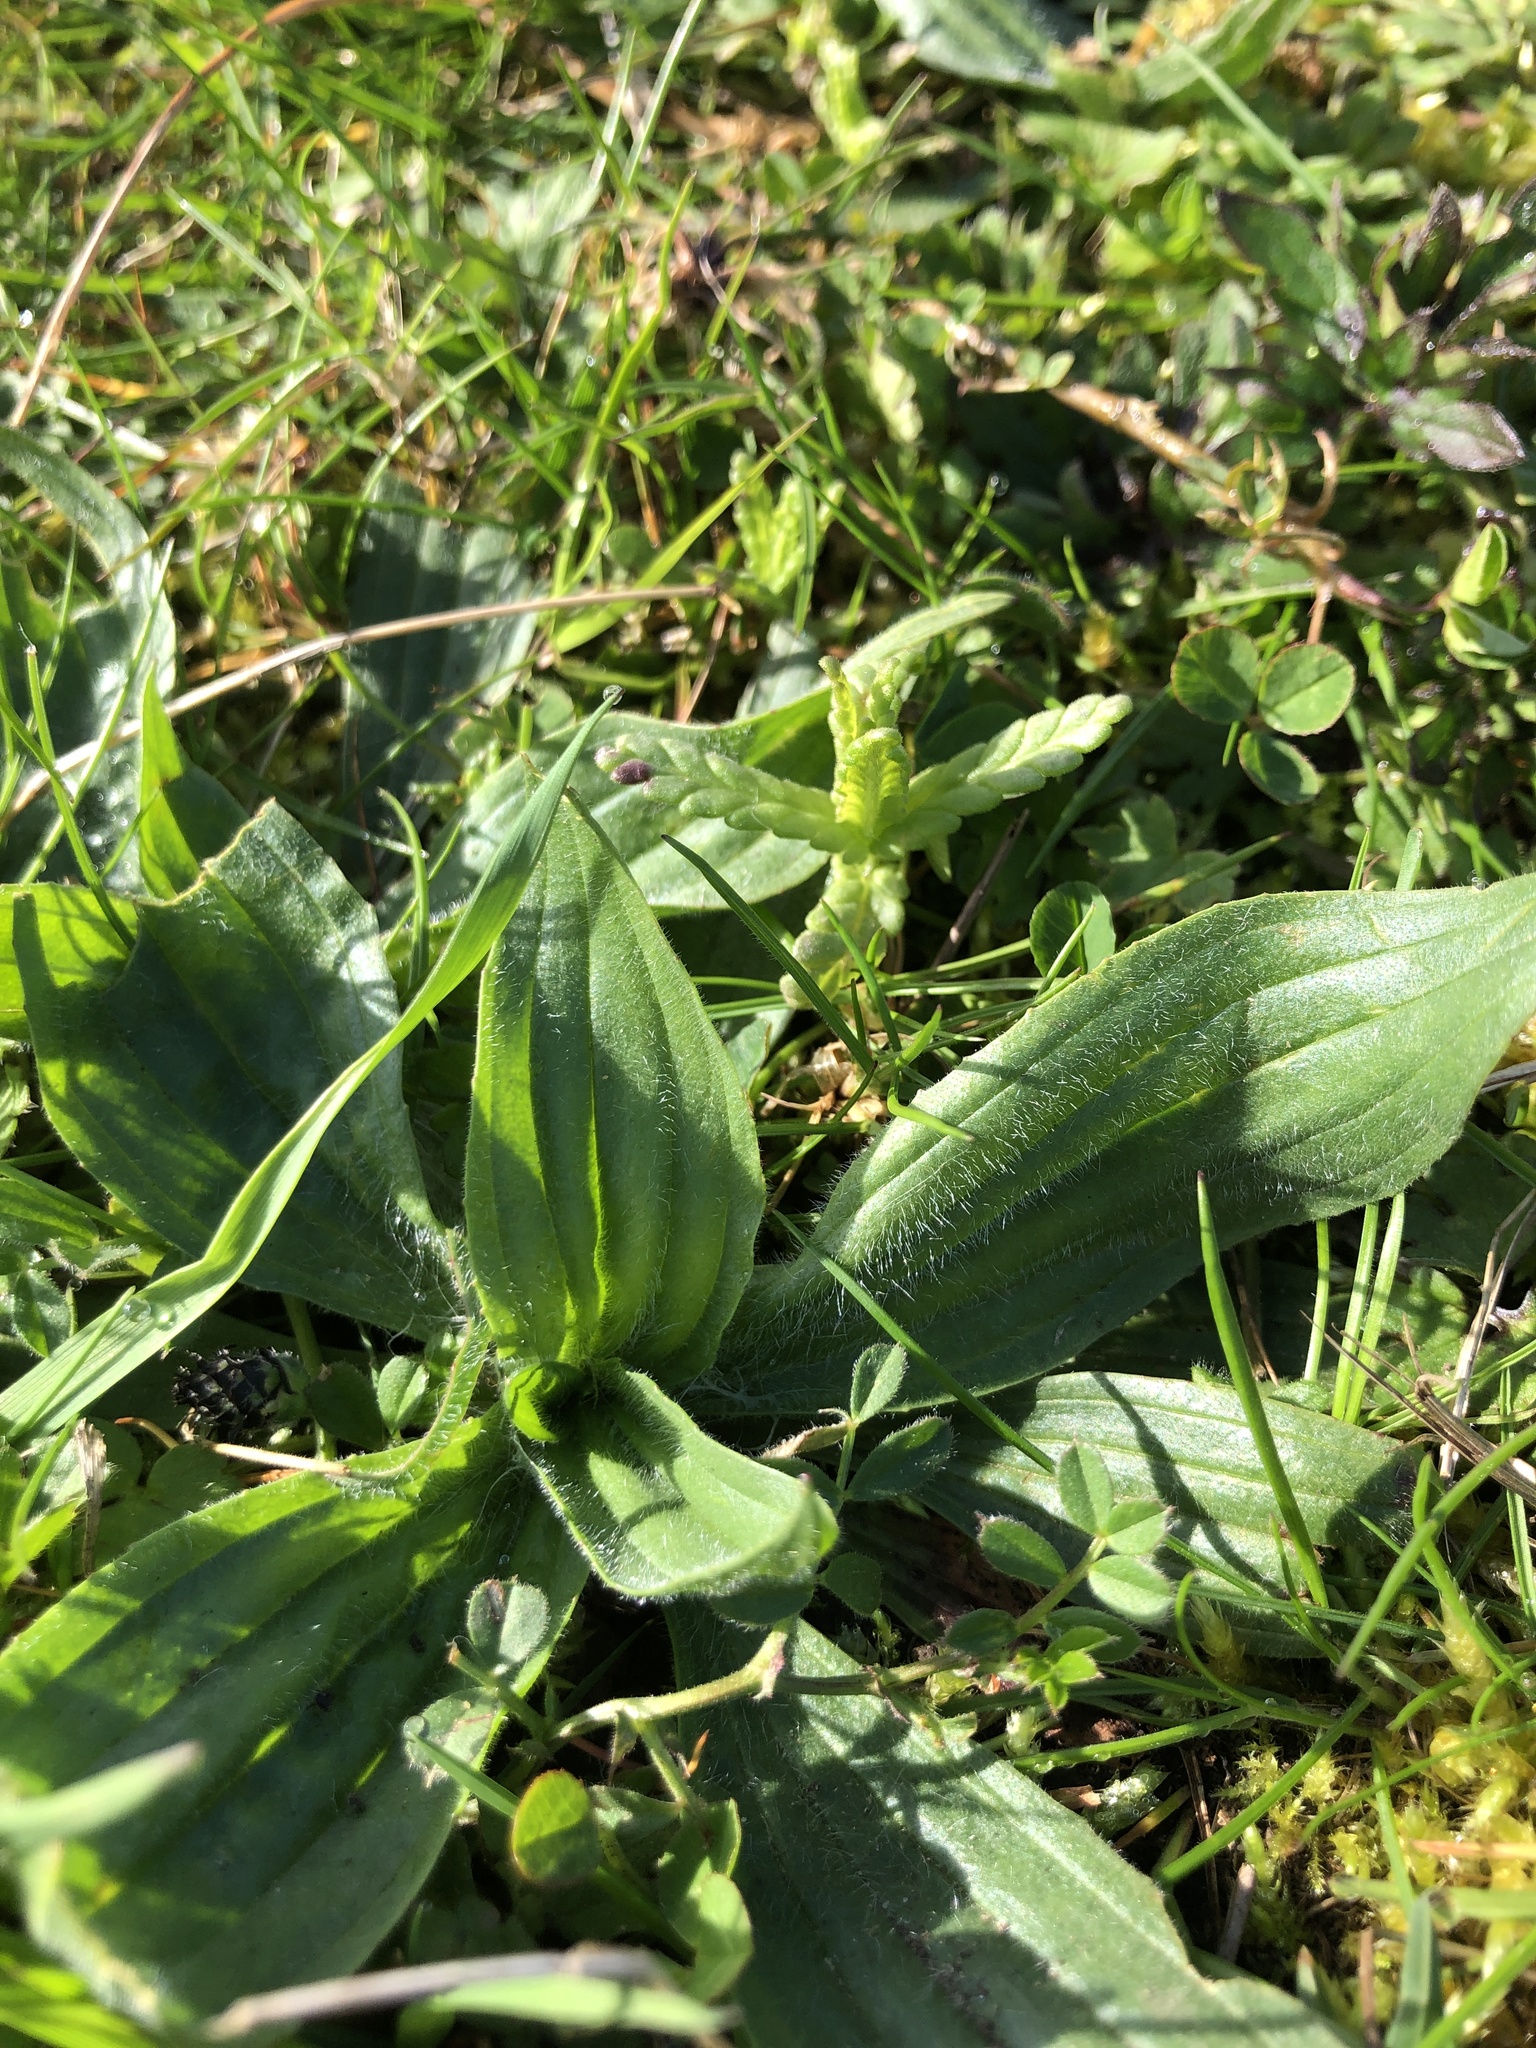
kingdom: Plantae
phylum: Tracheophyta
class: Magnoliopsida
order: Lamiales
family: Plantaginaceae
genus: Plantago
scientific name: Plantago lanceolata
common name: Ribwort plantain
